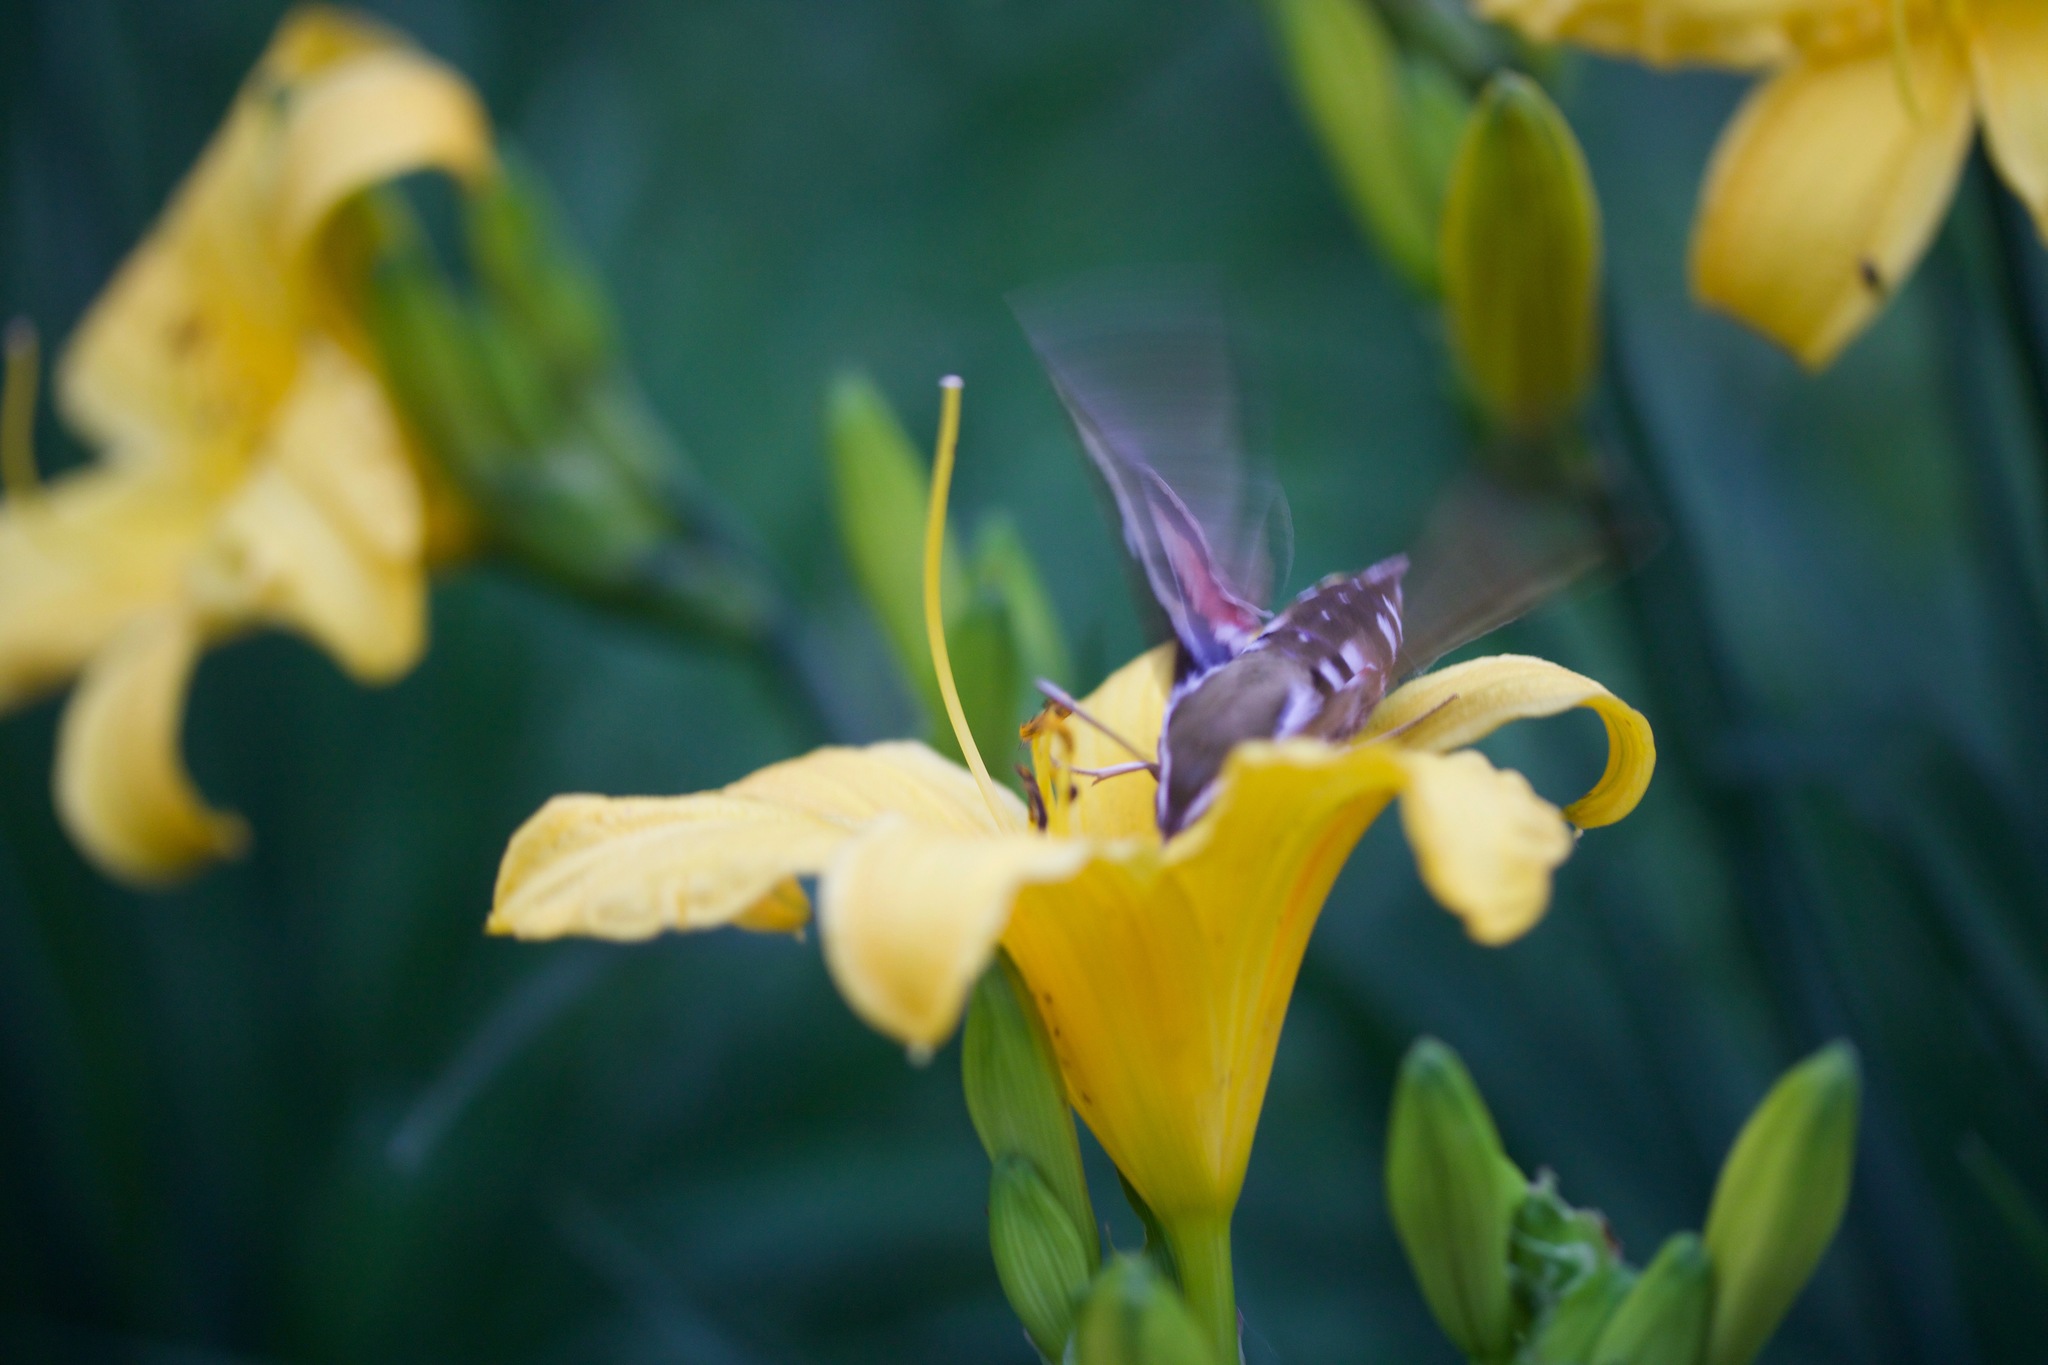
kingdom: Animalia
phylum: Arthropoda
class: Insecta
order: Lepidoptera
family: Sphingidae
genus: Hyles
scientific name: Hyles gallii
